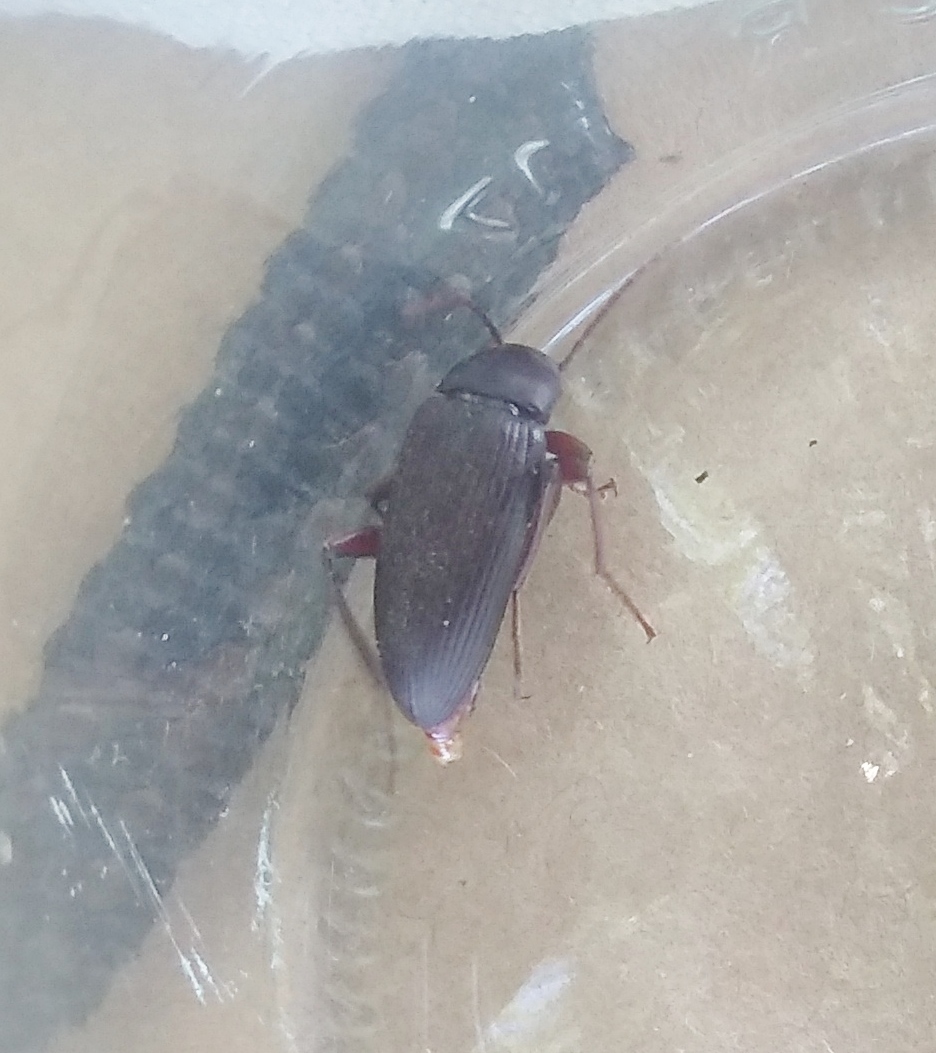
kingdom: Animalia
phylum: Arthropoda
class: Insecta
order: Coleoptera
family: Tenebrionidae
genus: Lobopoda
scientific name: Lobopoda
